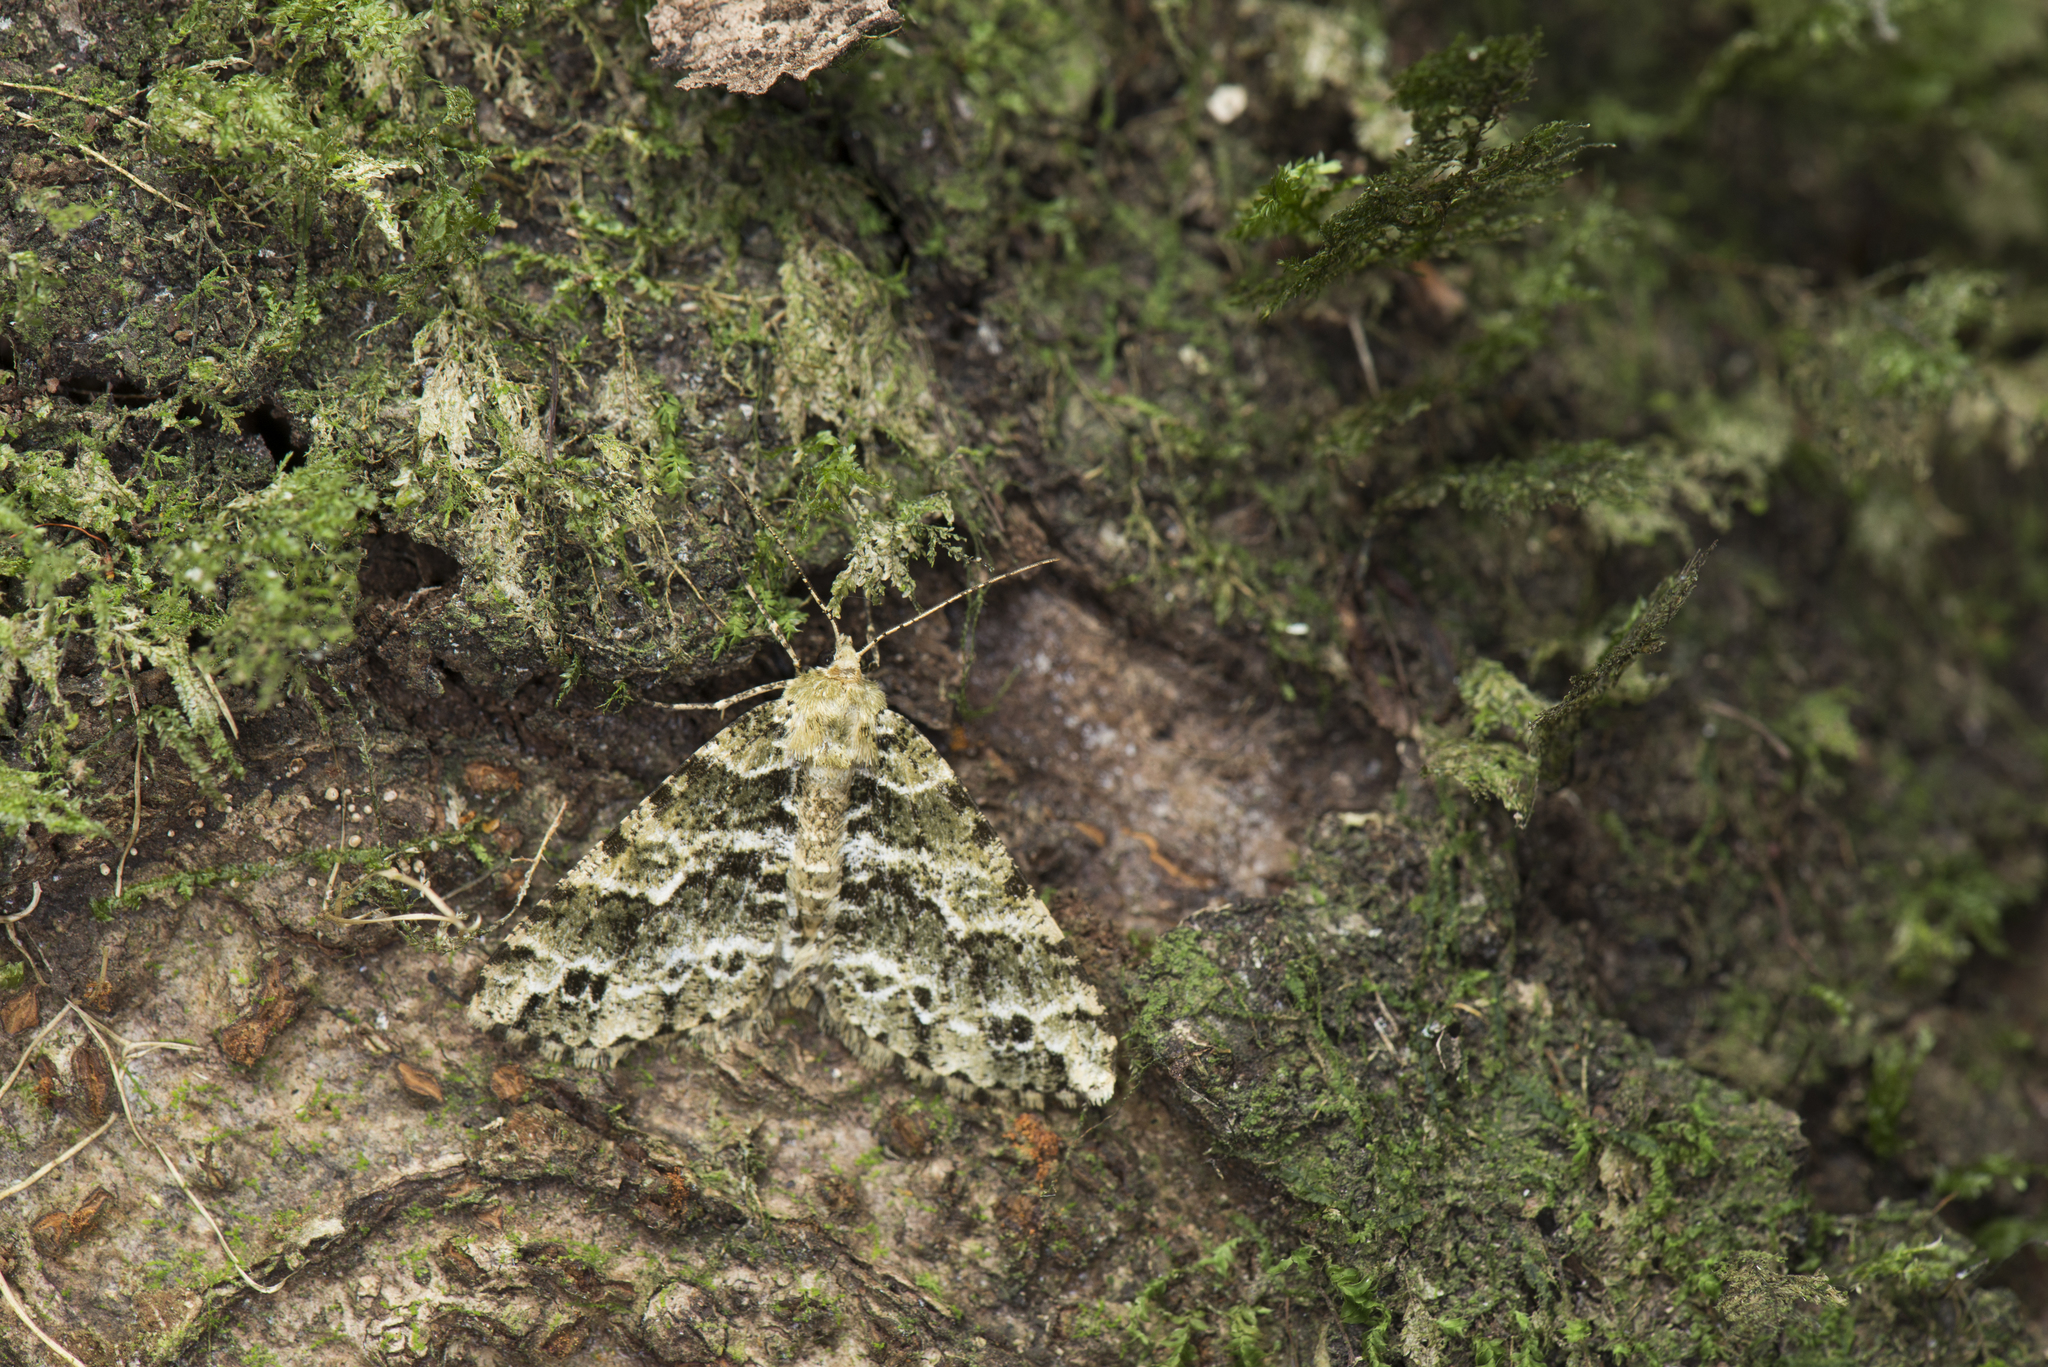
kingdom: Animalia
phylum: Arthropoda
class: Insecta
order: Lepidoptera
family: Geometridae
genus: Arichanna
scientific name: Arichanna marginata
